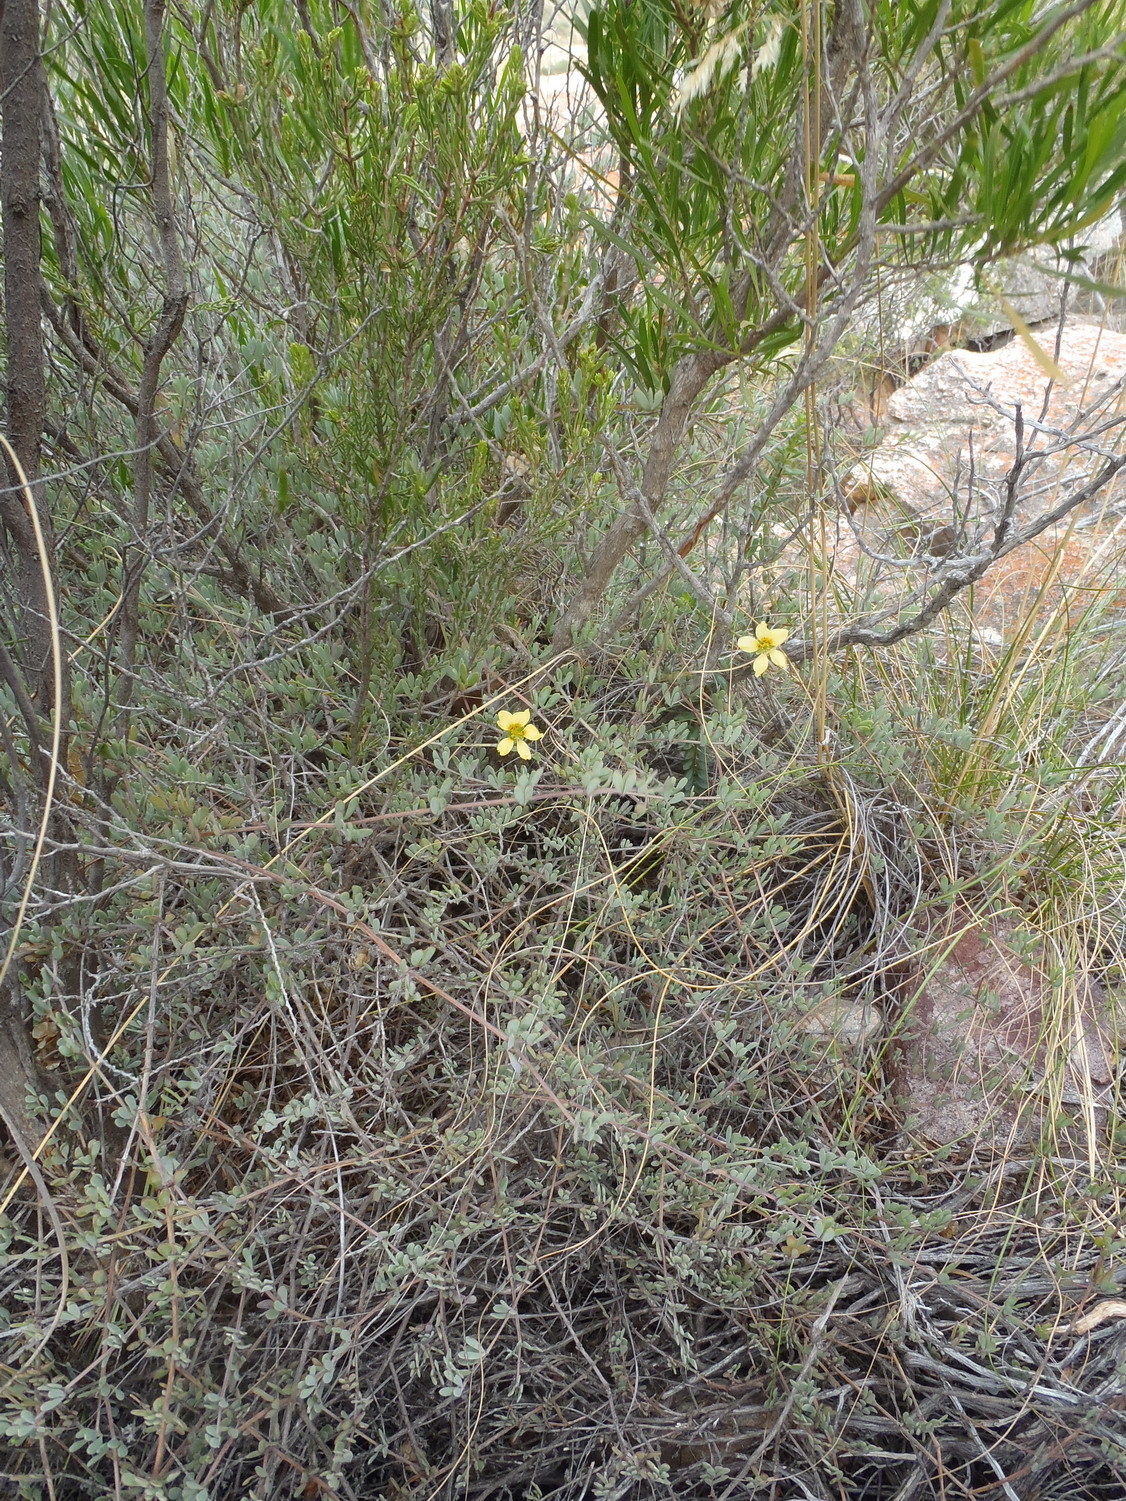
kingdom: Plantae
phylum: Tracheophyta
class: Magnoliopsida
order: Zygophyllales
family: Zygophyllaceae
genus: Roepera
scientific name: Roepera fulva
